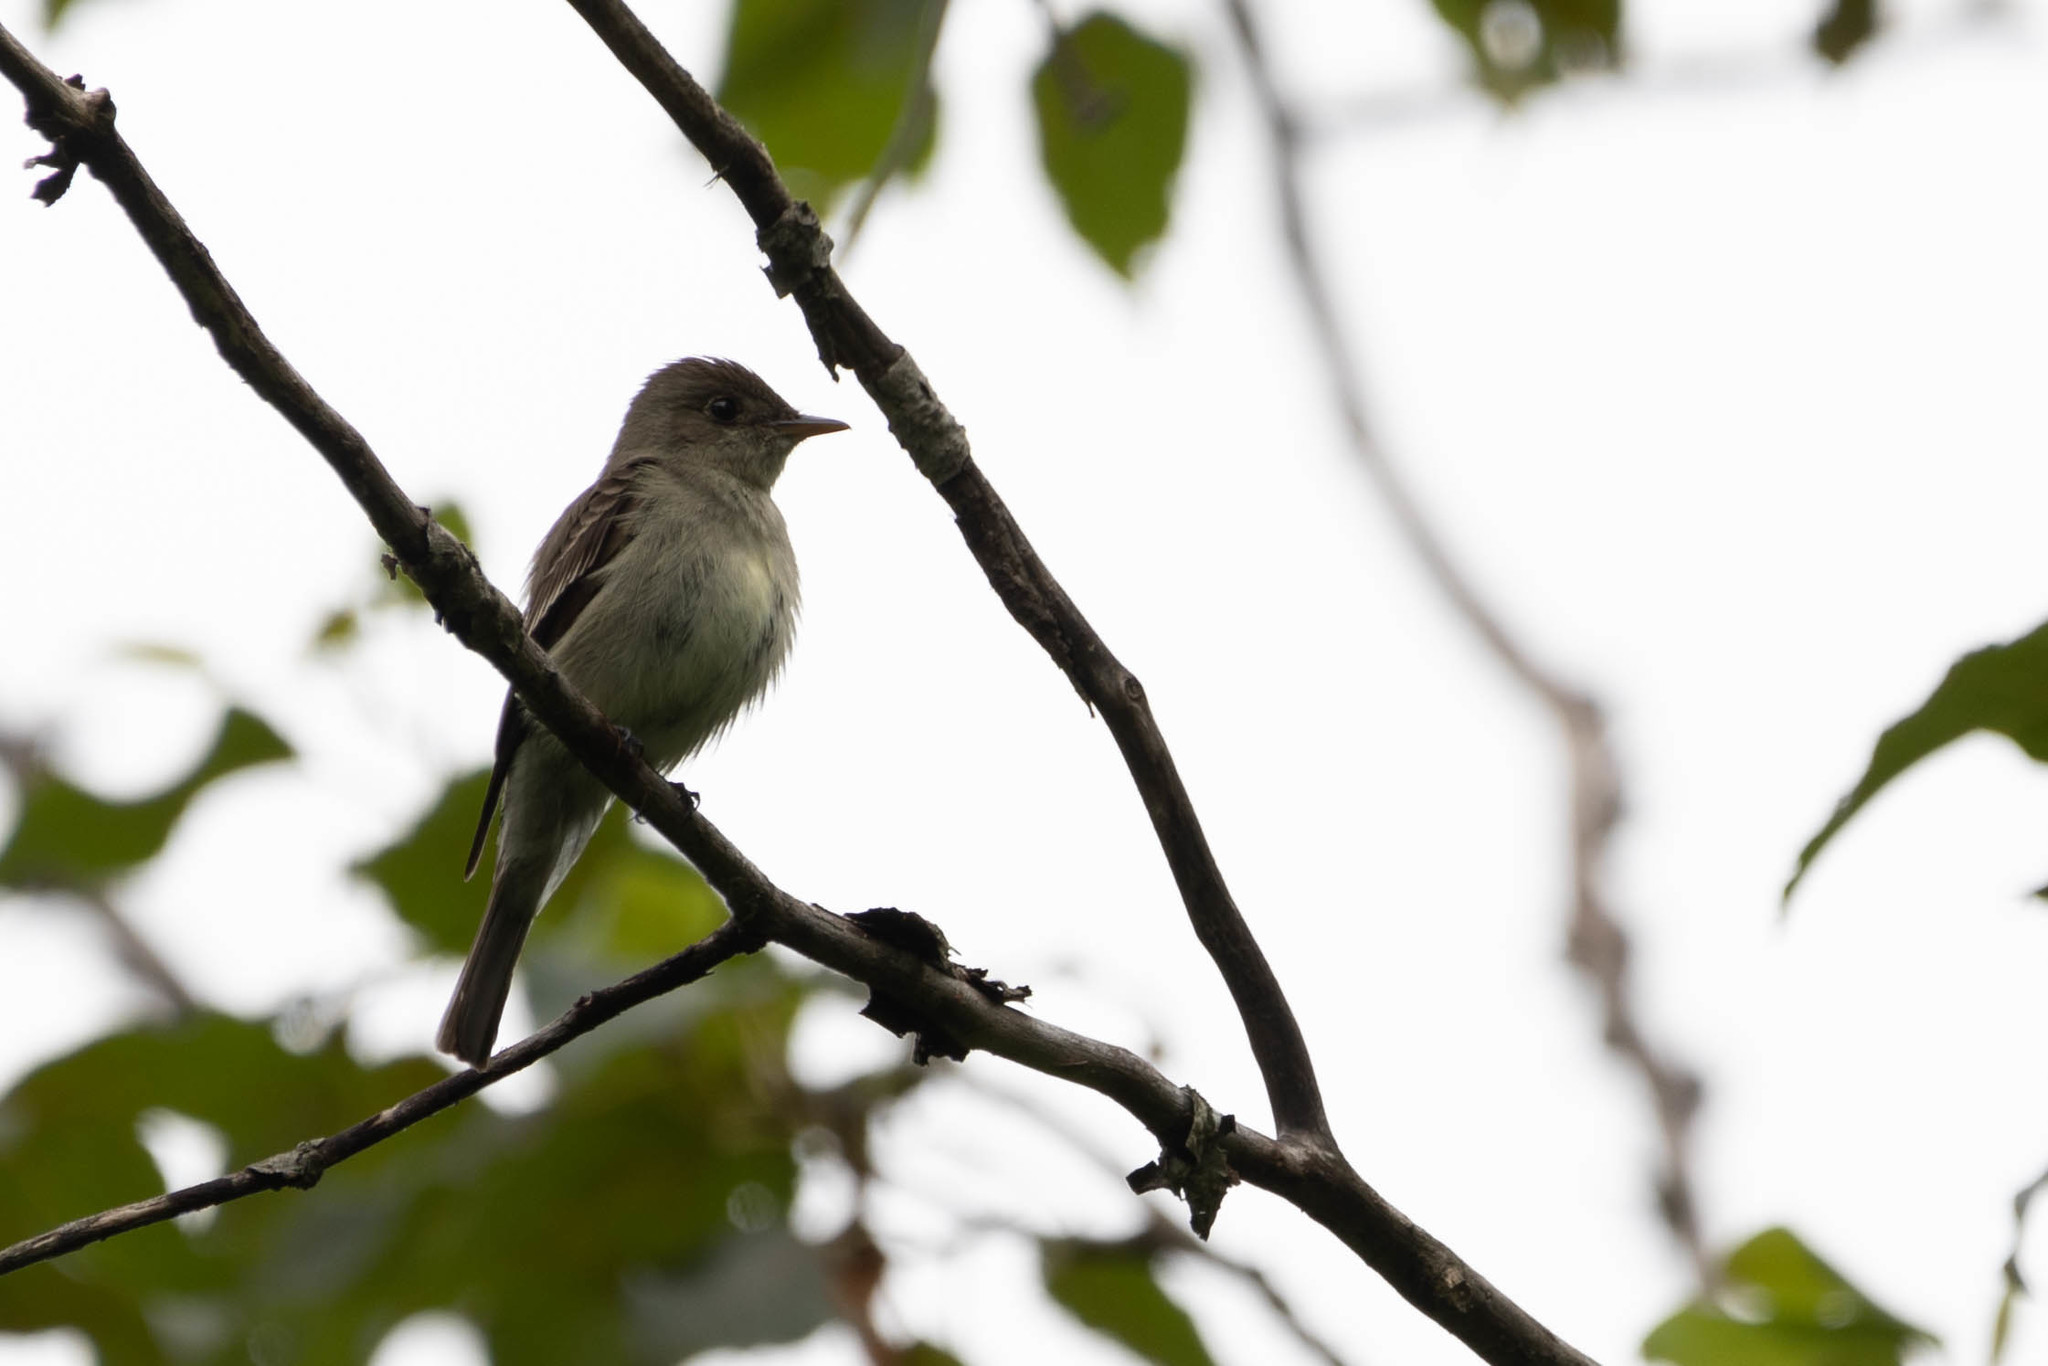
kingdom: Animalia
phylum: Chordata
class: Aves
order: Passeriformes
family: Tyrannidae
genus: Sayornis
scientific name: Sayornis phoebe
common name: Eastern phoebe
